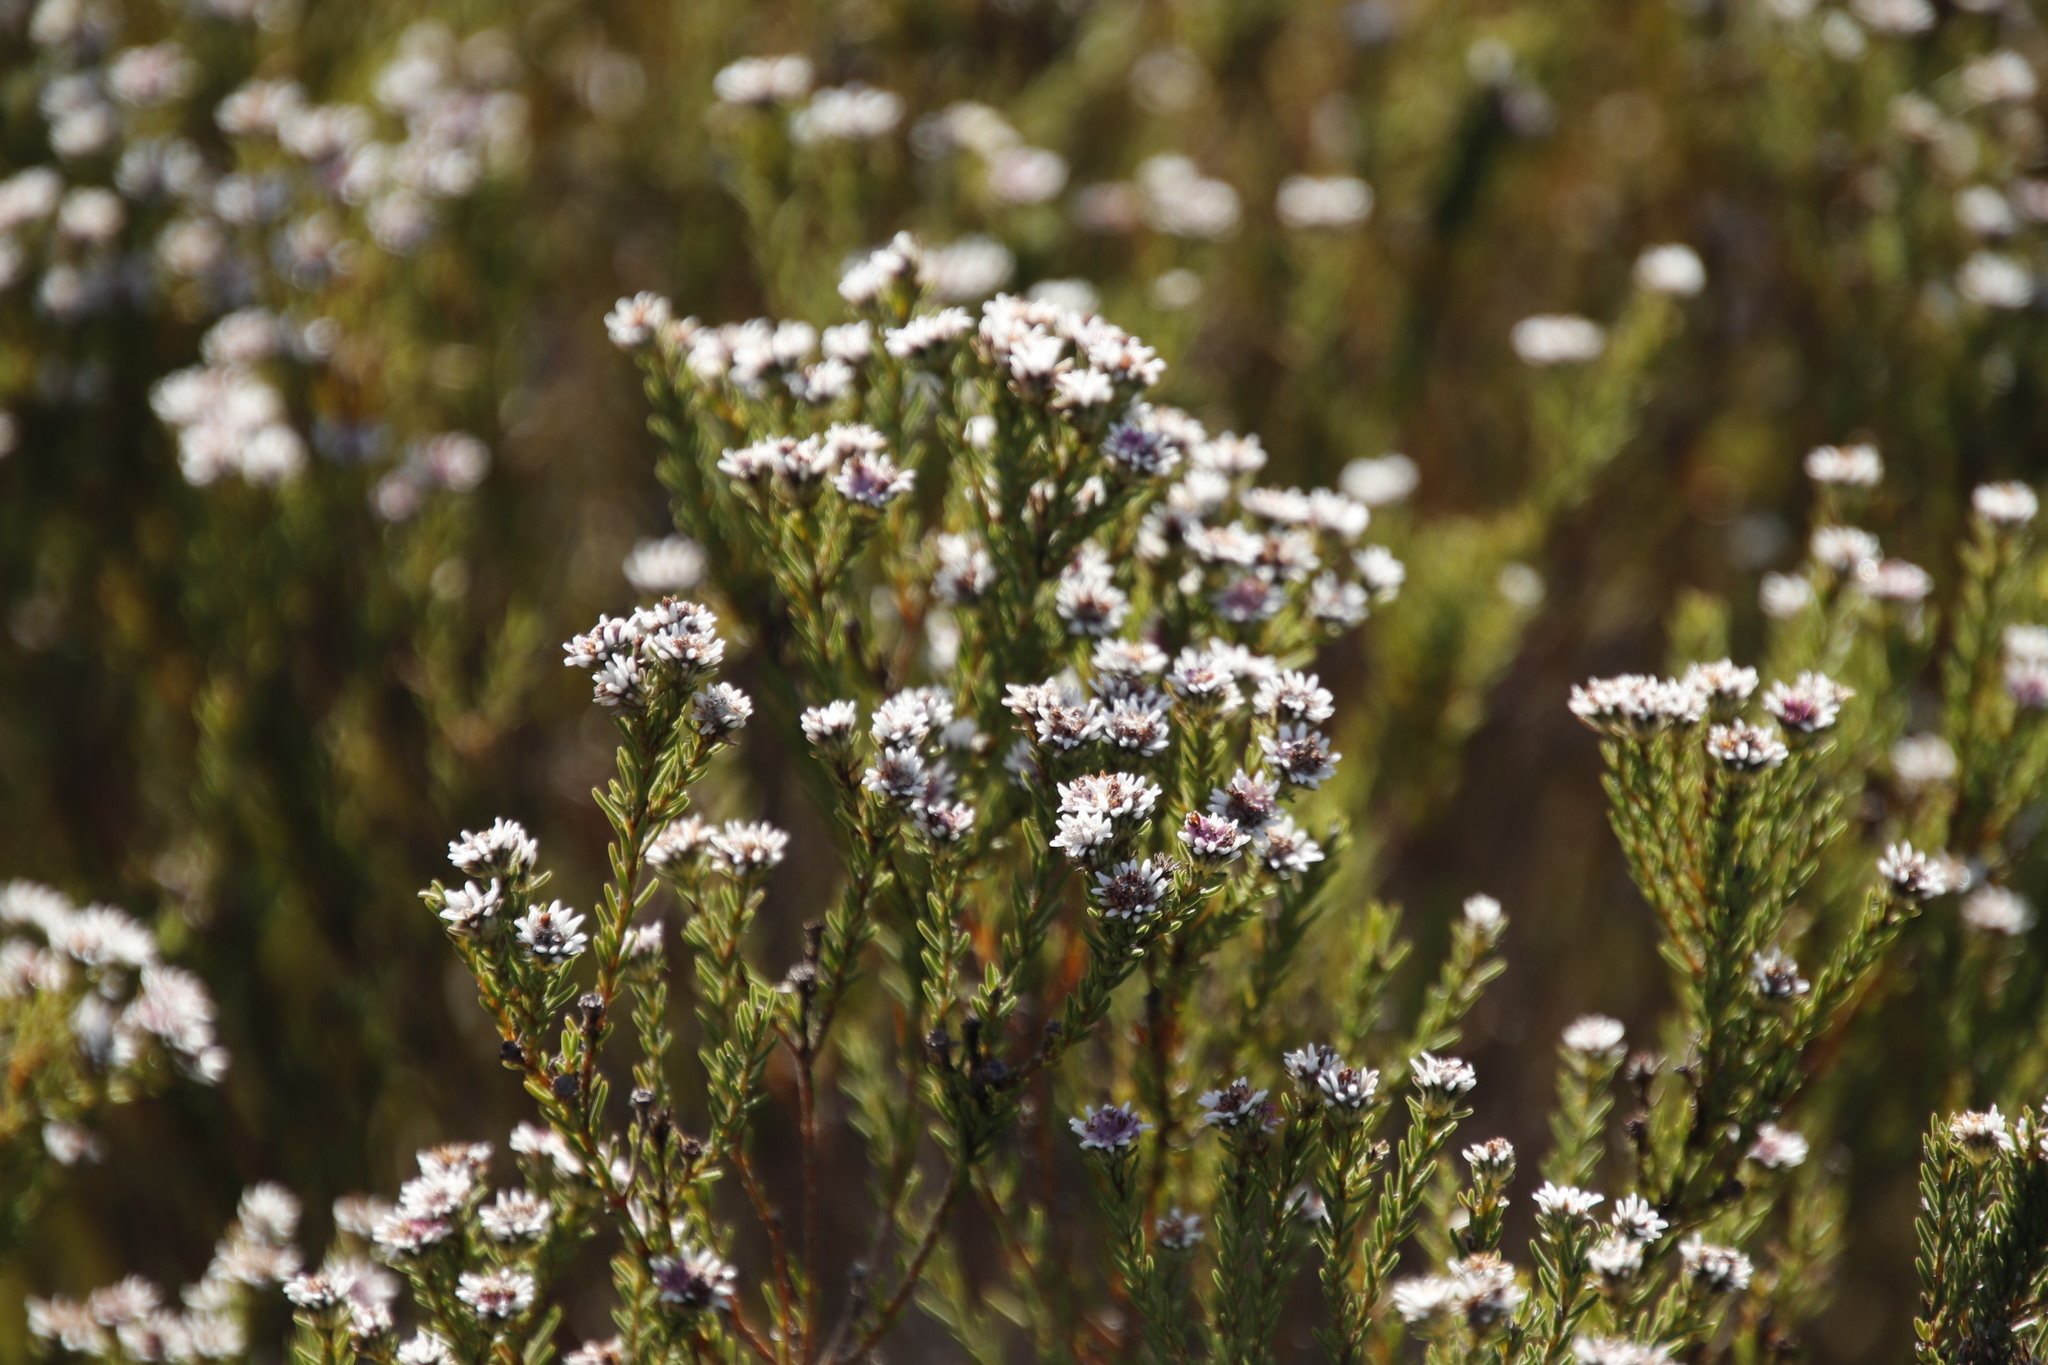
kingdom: Plantae
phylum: Tracheophyta
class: Magnoliopsida
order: Bruniales
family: Bruniaceae
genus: Staavia
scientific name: Staavia radiata
